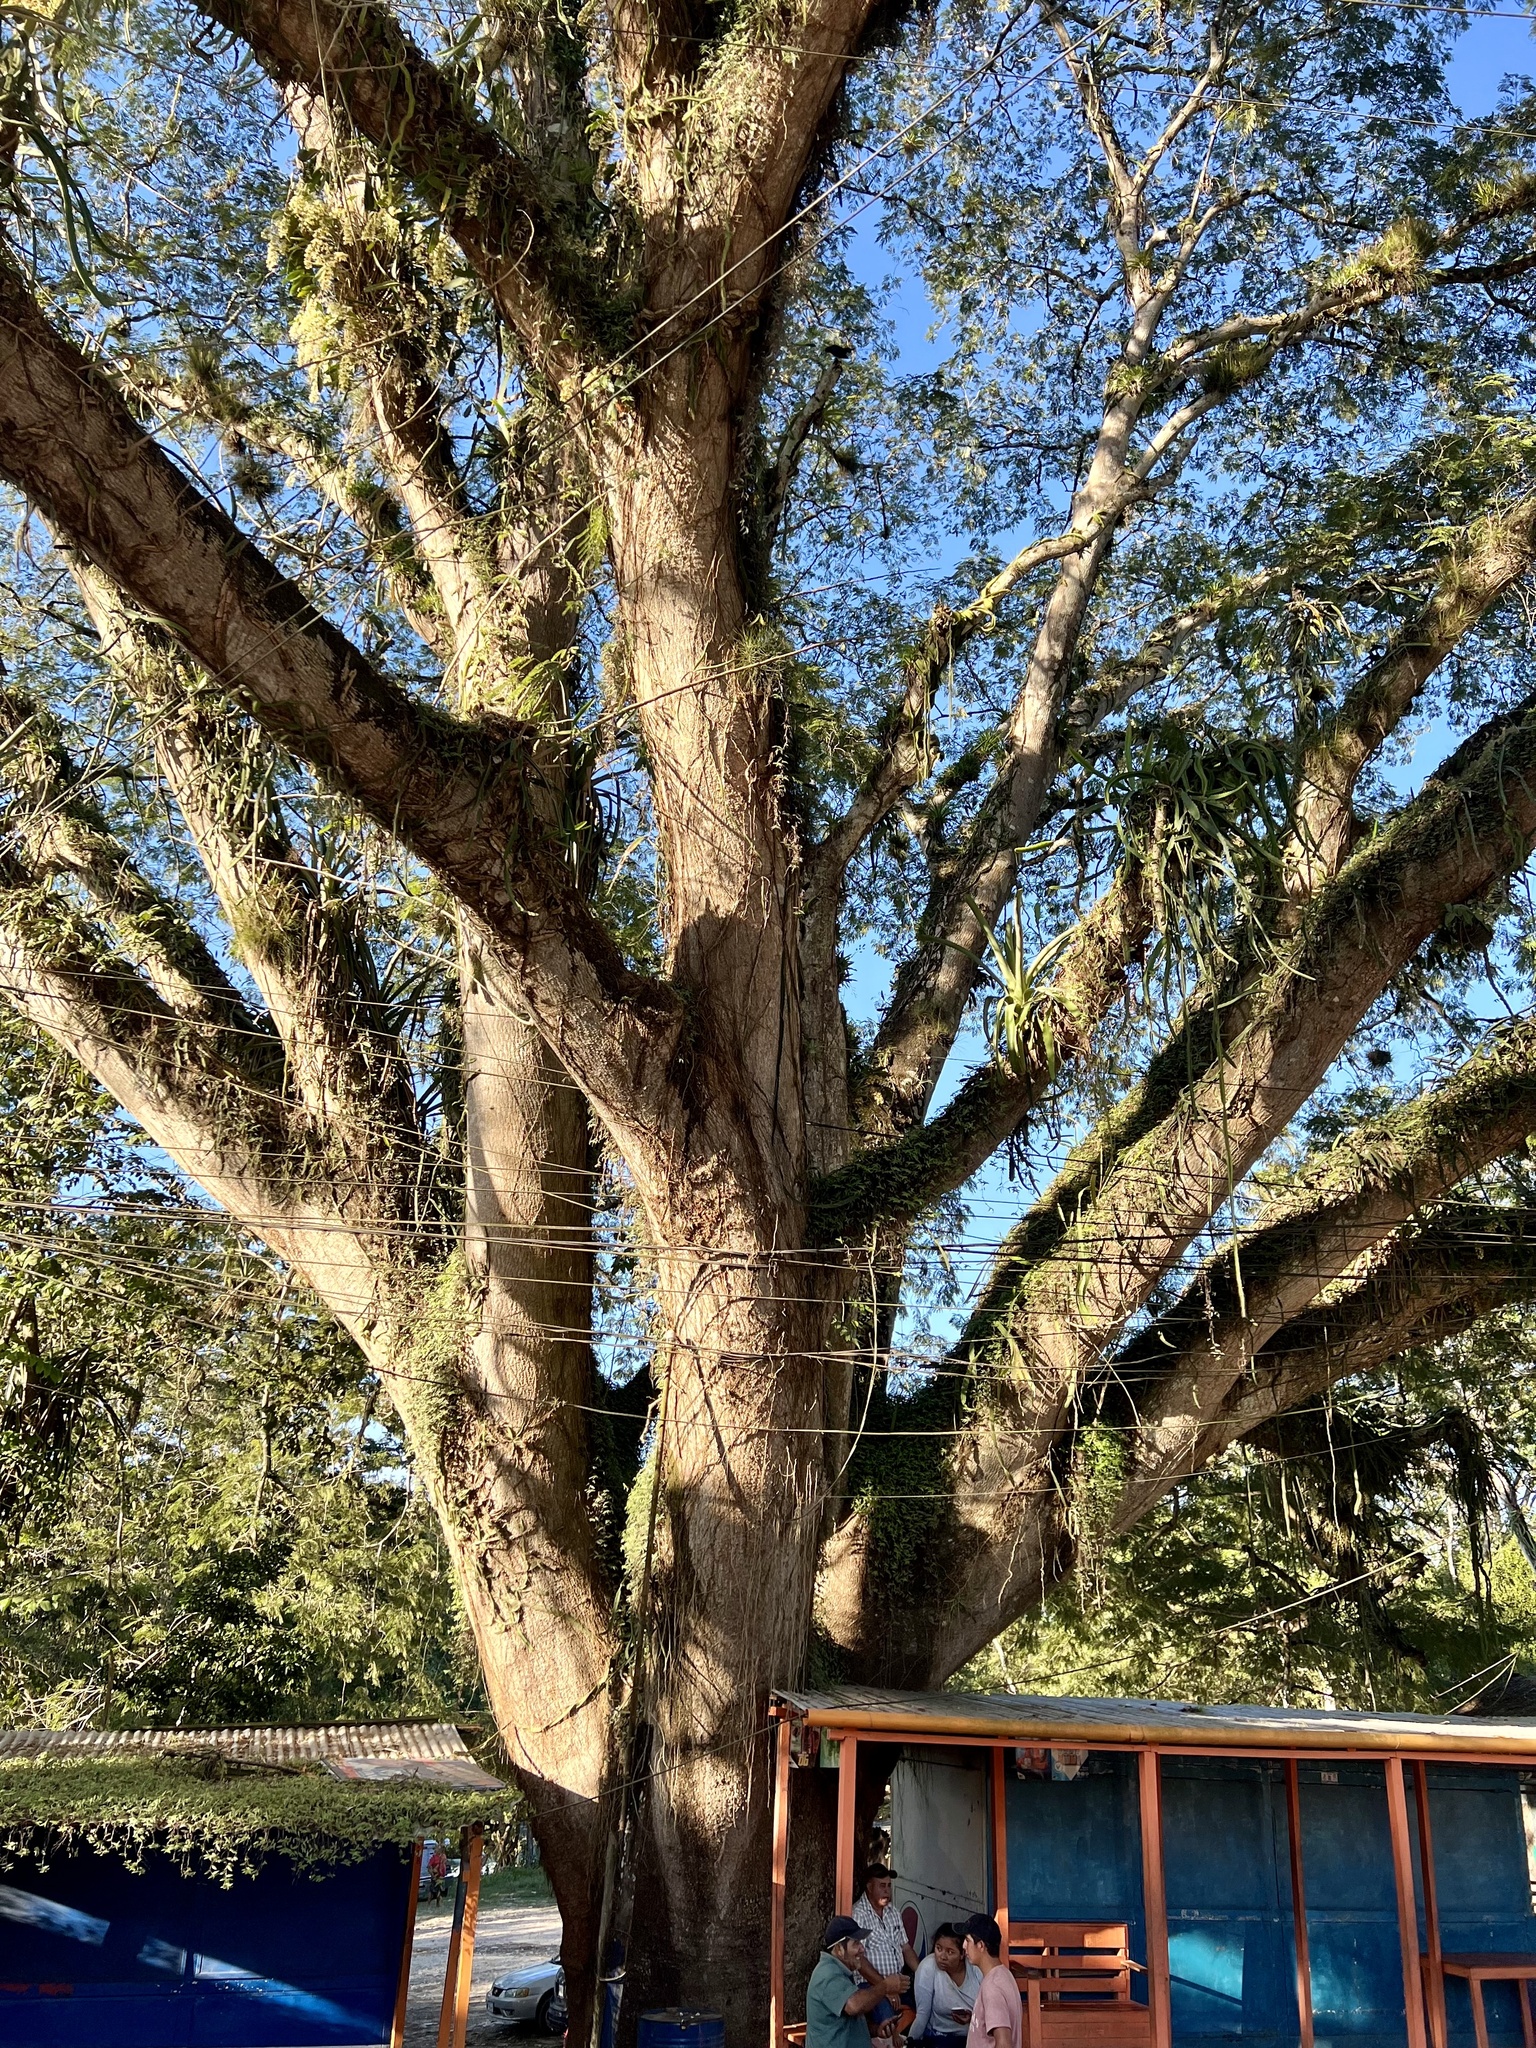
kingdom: Plantae
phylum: Tracheophyta
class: Magnoliopsida
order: Fabales
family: Fabaceae
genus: Enterolobium
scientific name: Enterolobium cyclocarpum
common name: Ear tree
